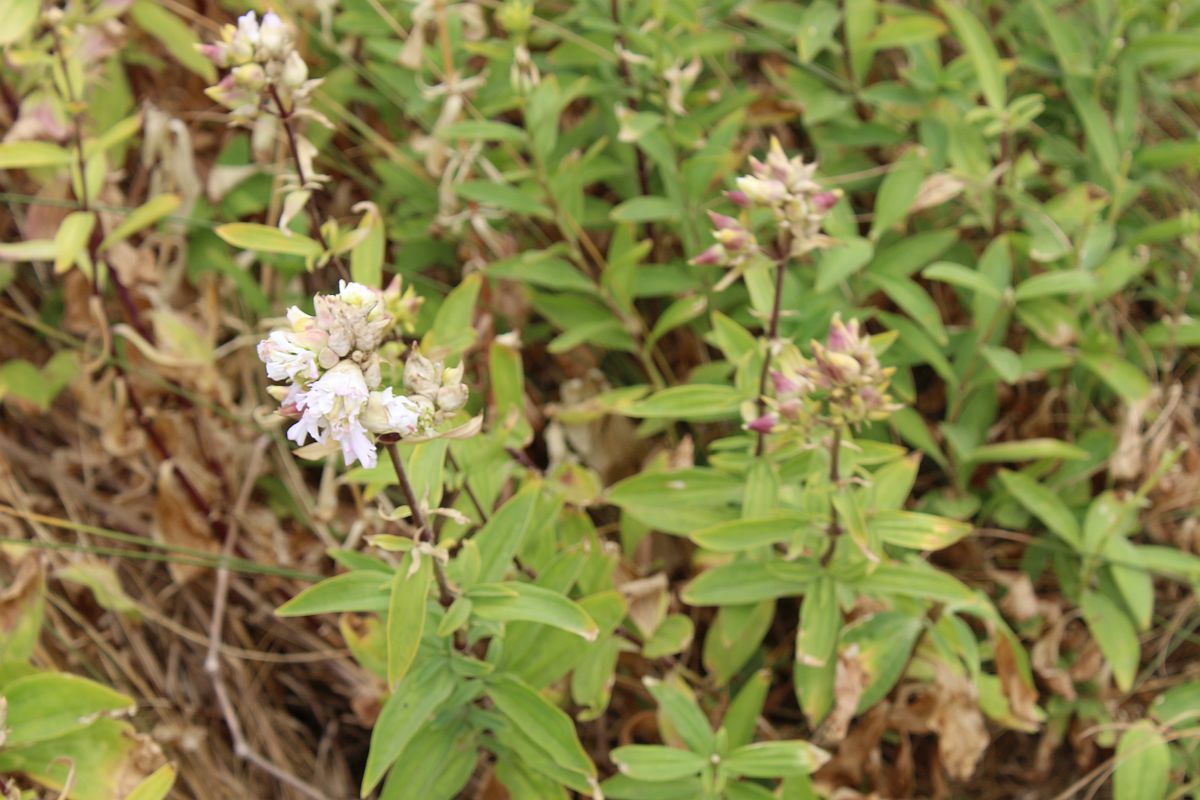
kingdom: Plantae
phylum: Tracheophyta
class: Magnoliopsida
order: Caryophyllales
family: Caryophyllaceae
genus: Saponaria
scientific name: Saponaria officinalis
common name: Soapwort
